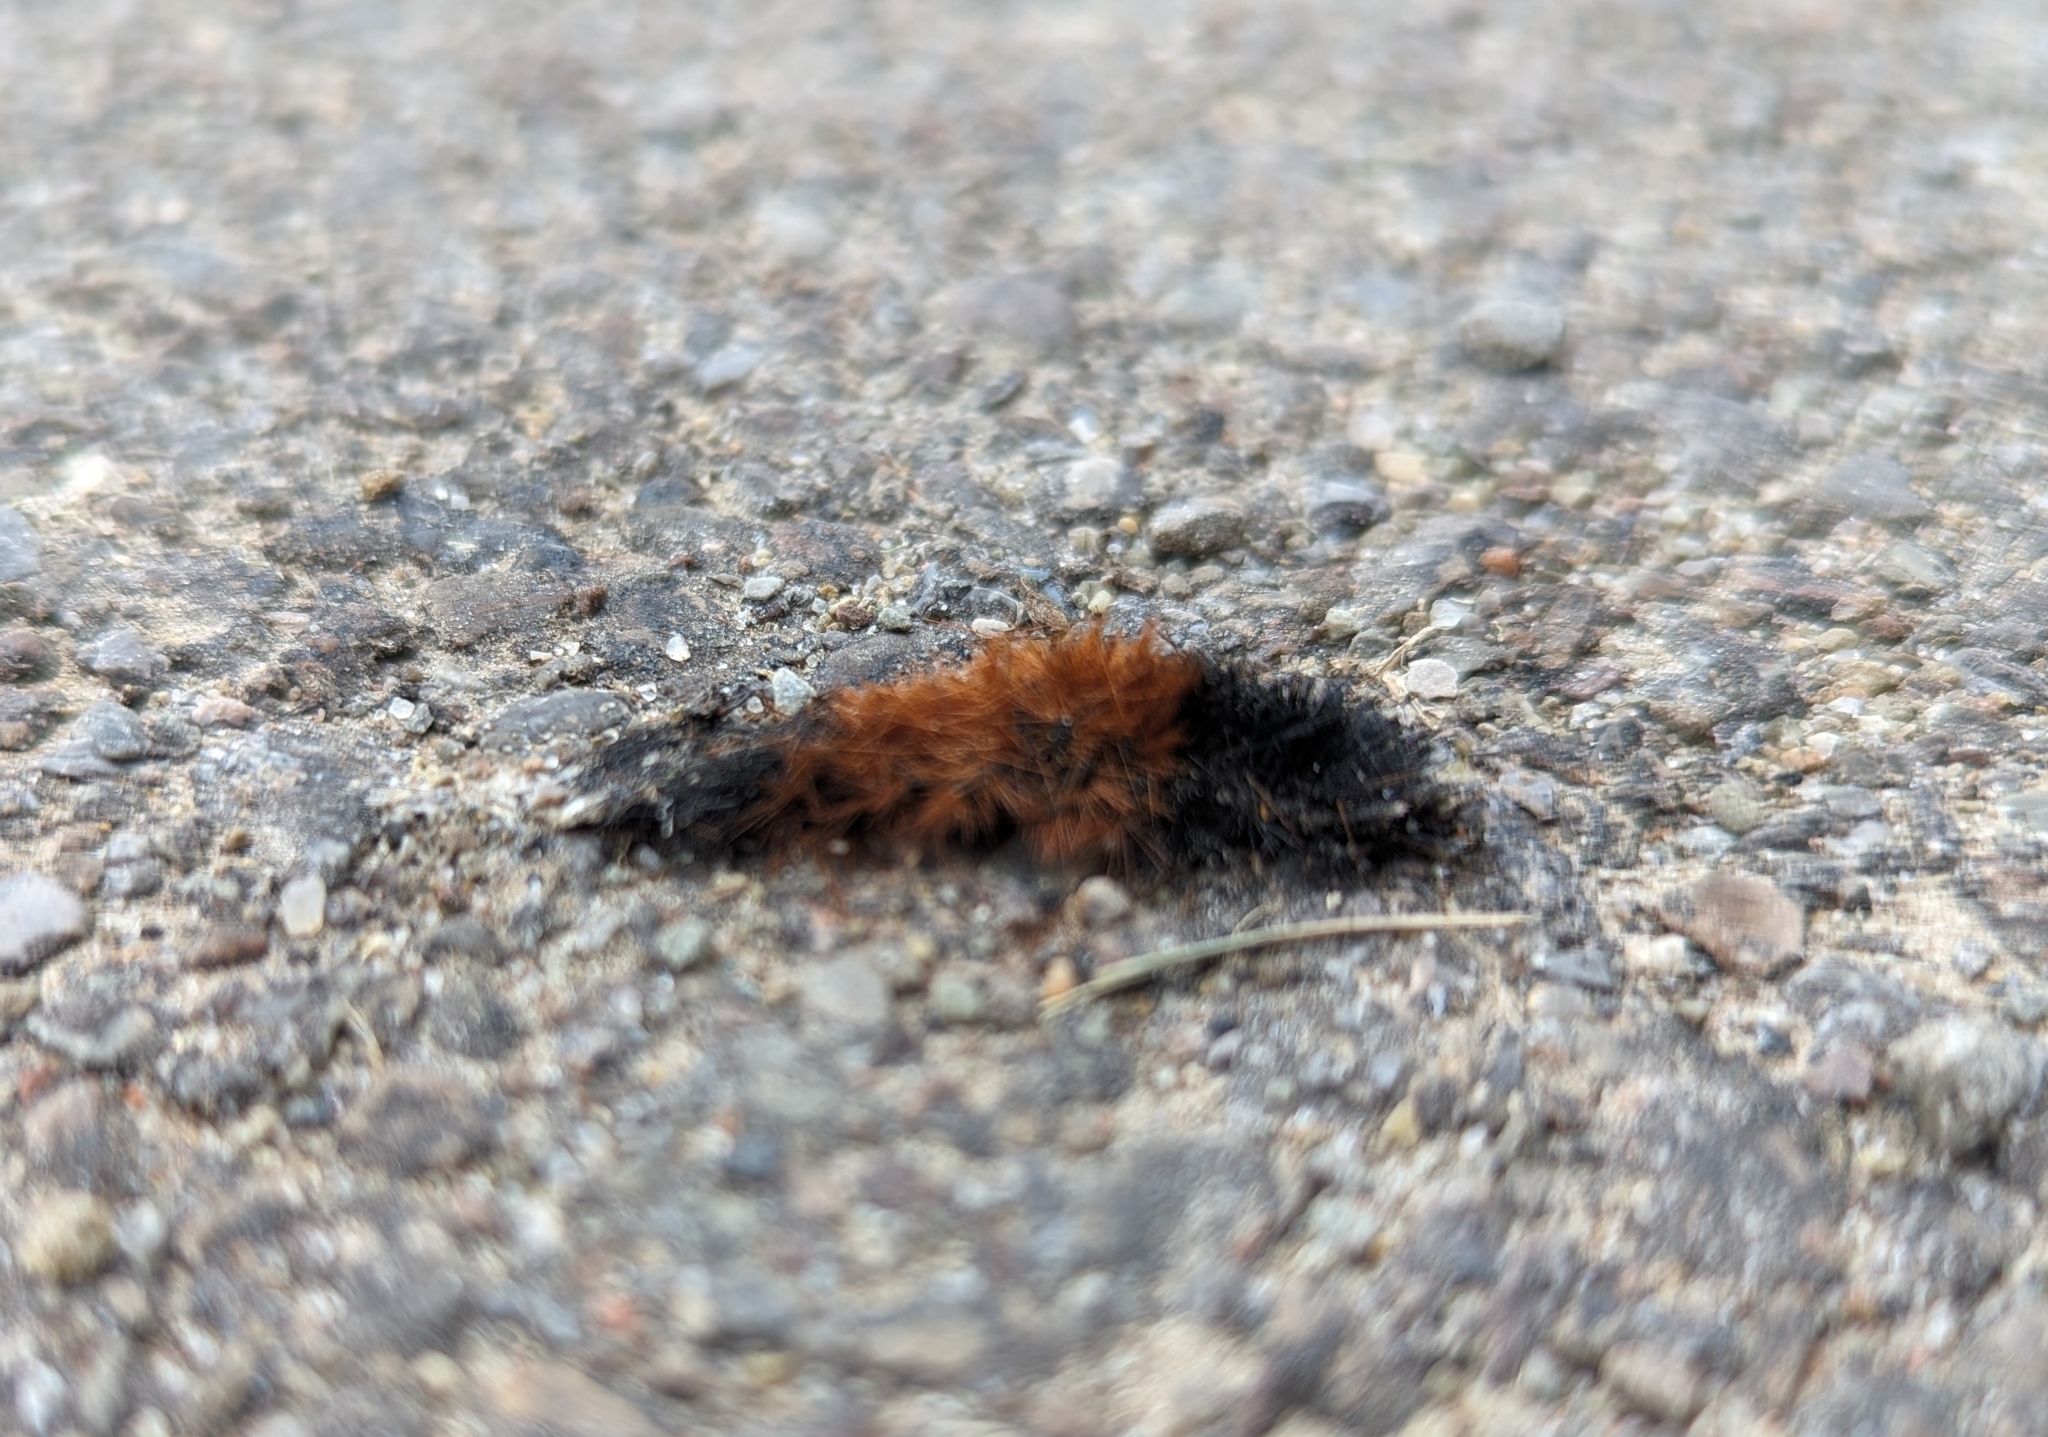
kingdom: Animalia
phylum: Arthropoda
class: Insecta
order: Lepidoptera
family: Erebidae
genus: Pyrrharctia
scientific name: Pyrrharctia isabella
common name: Isabella tiger moth
